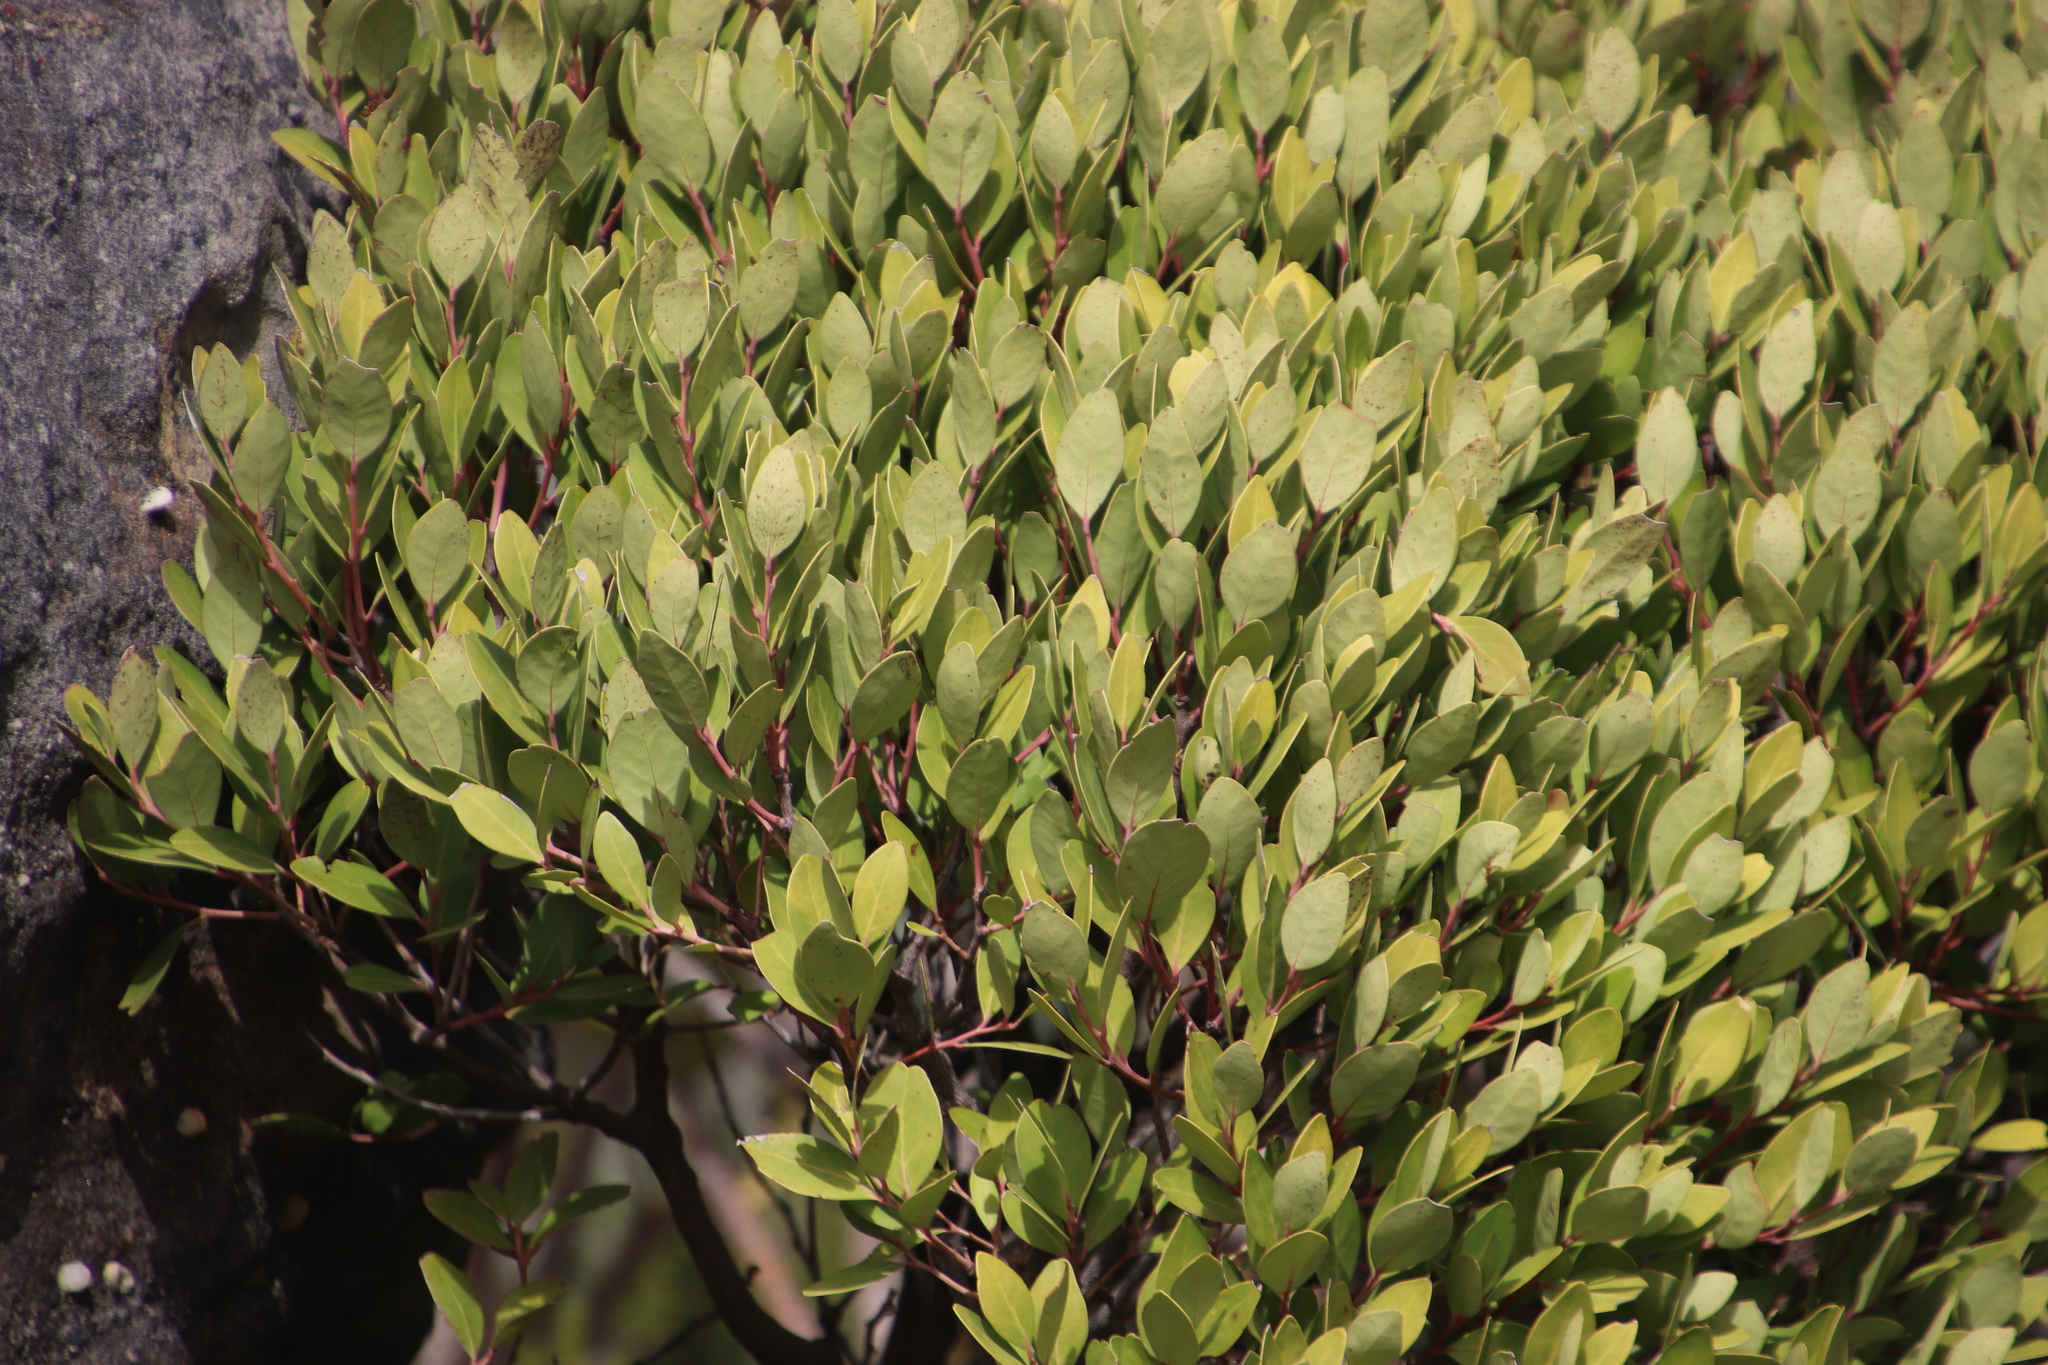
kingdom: Plantae
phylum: Tracheophyta
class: Magnoliopsida
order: Ericales
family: Ebenaceae
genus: Euclea
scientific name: Euclea racemosa
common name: Dune guarri
